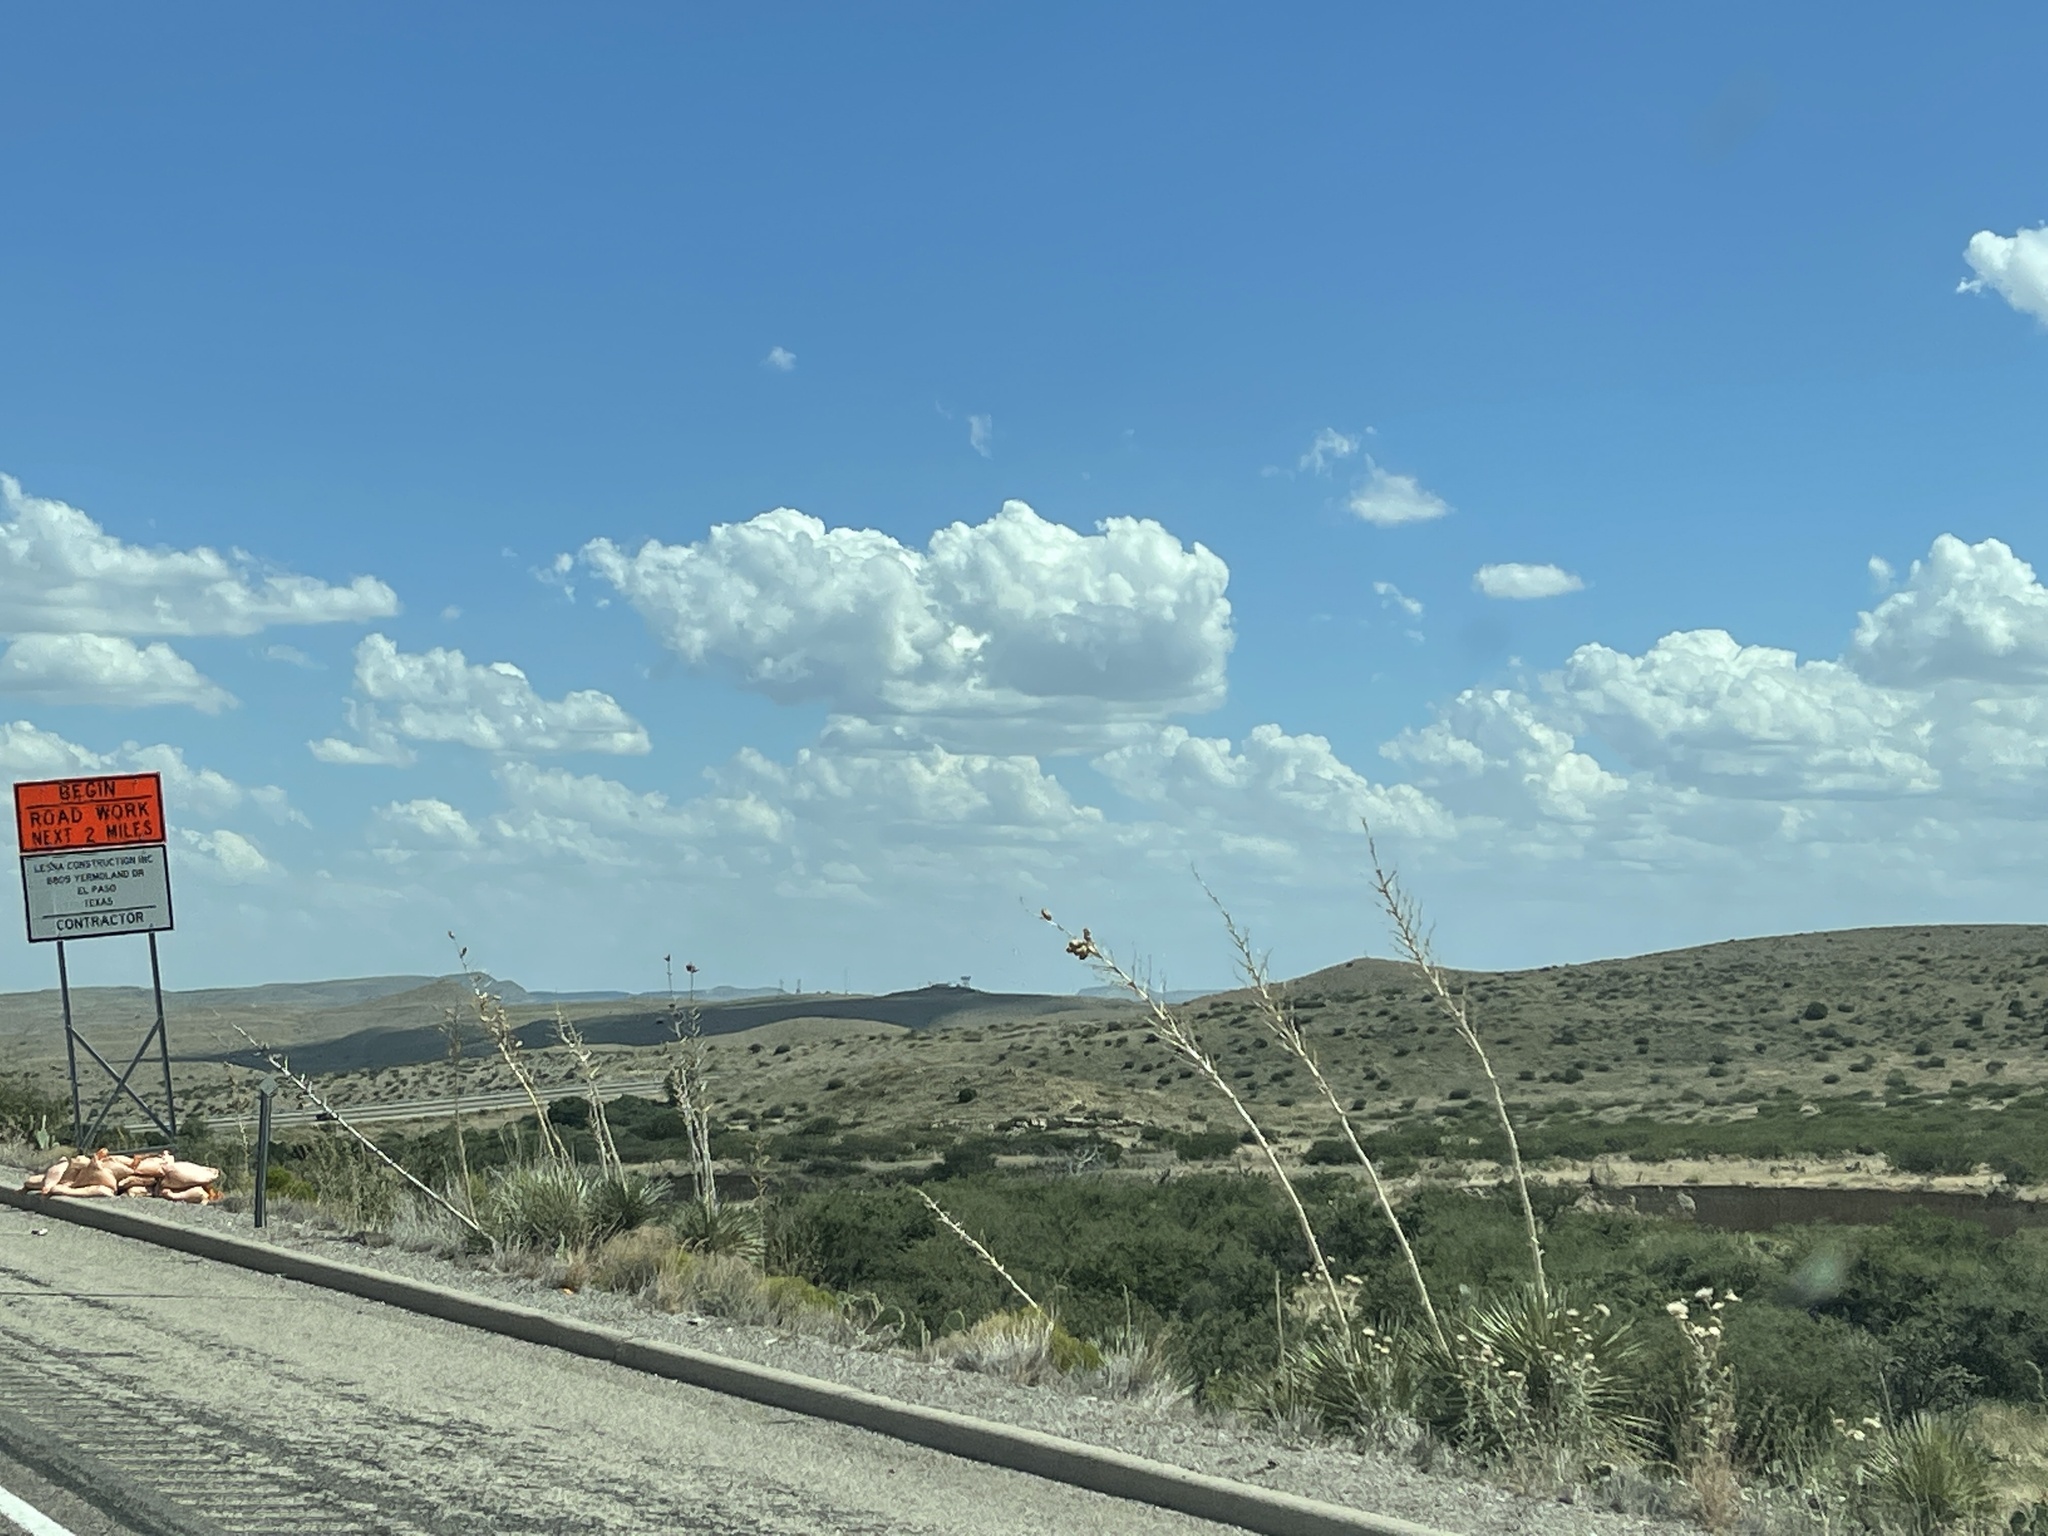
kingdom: Plantae
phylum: Tracheophyta
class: Liliopsida
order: Asparagales
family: Asparagaceae
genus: Yucca
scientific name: Yucca elata
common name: Palmella
